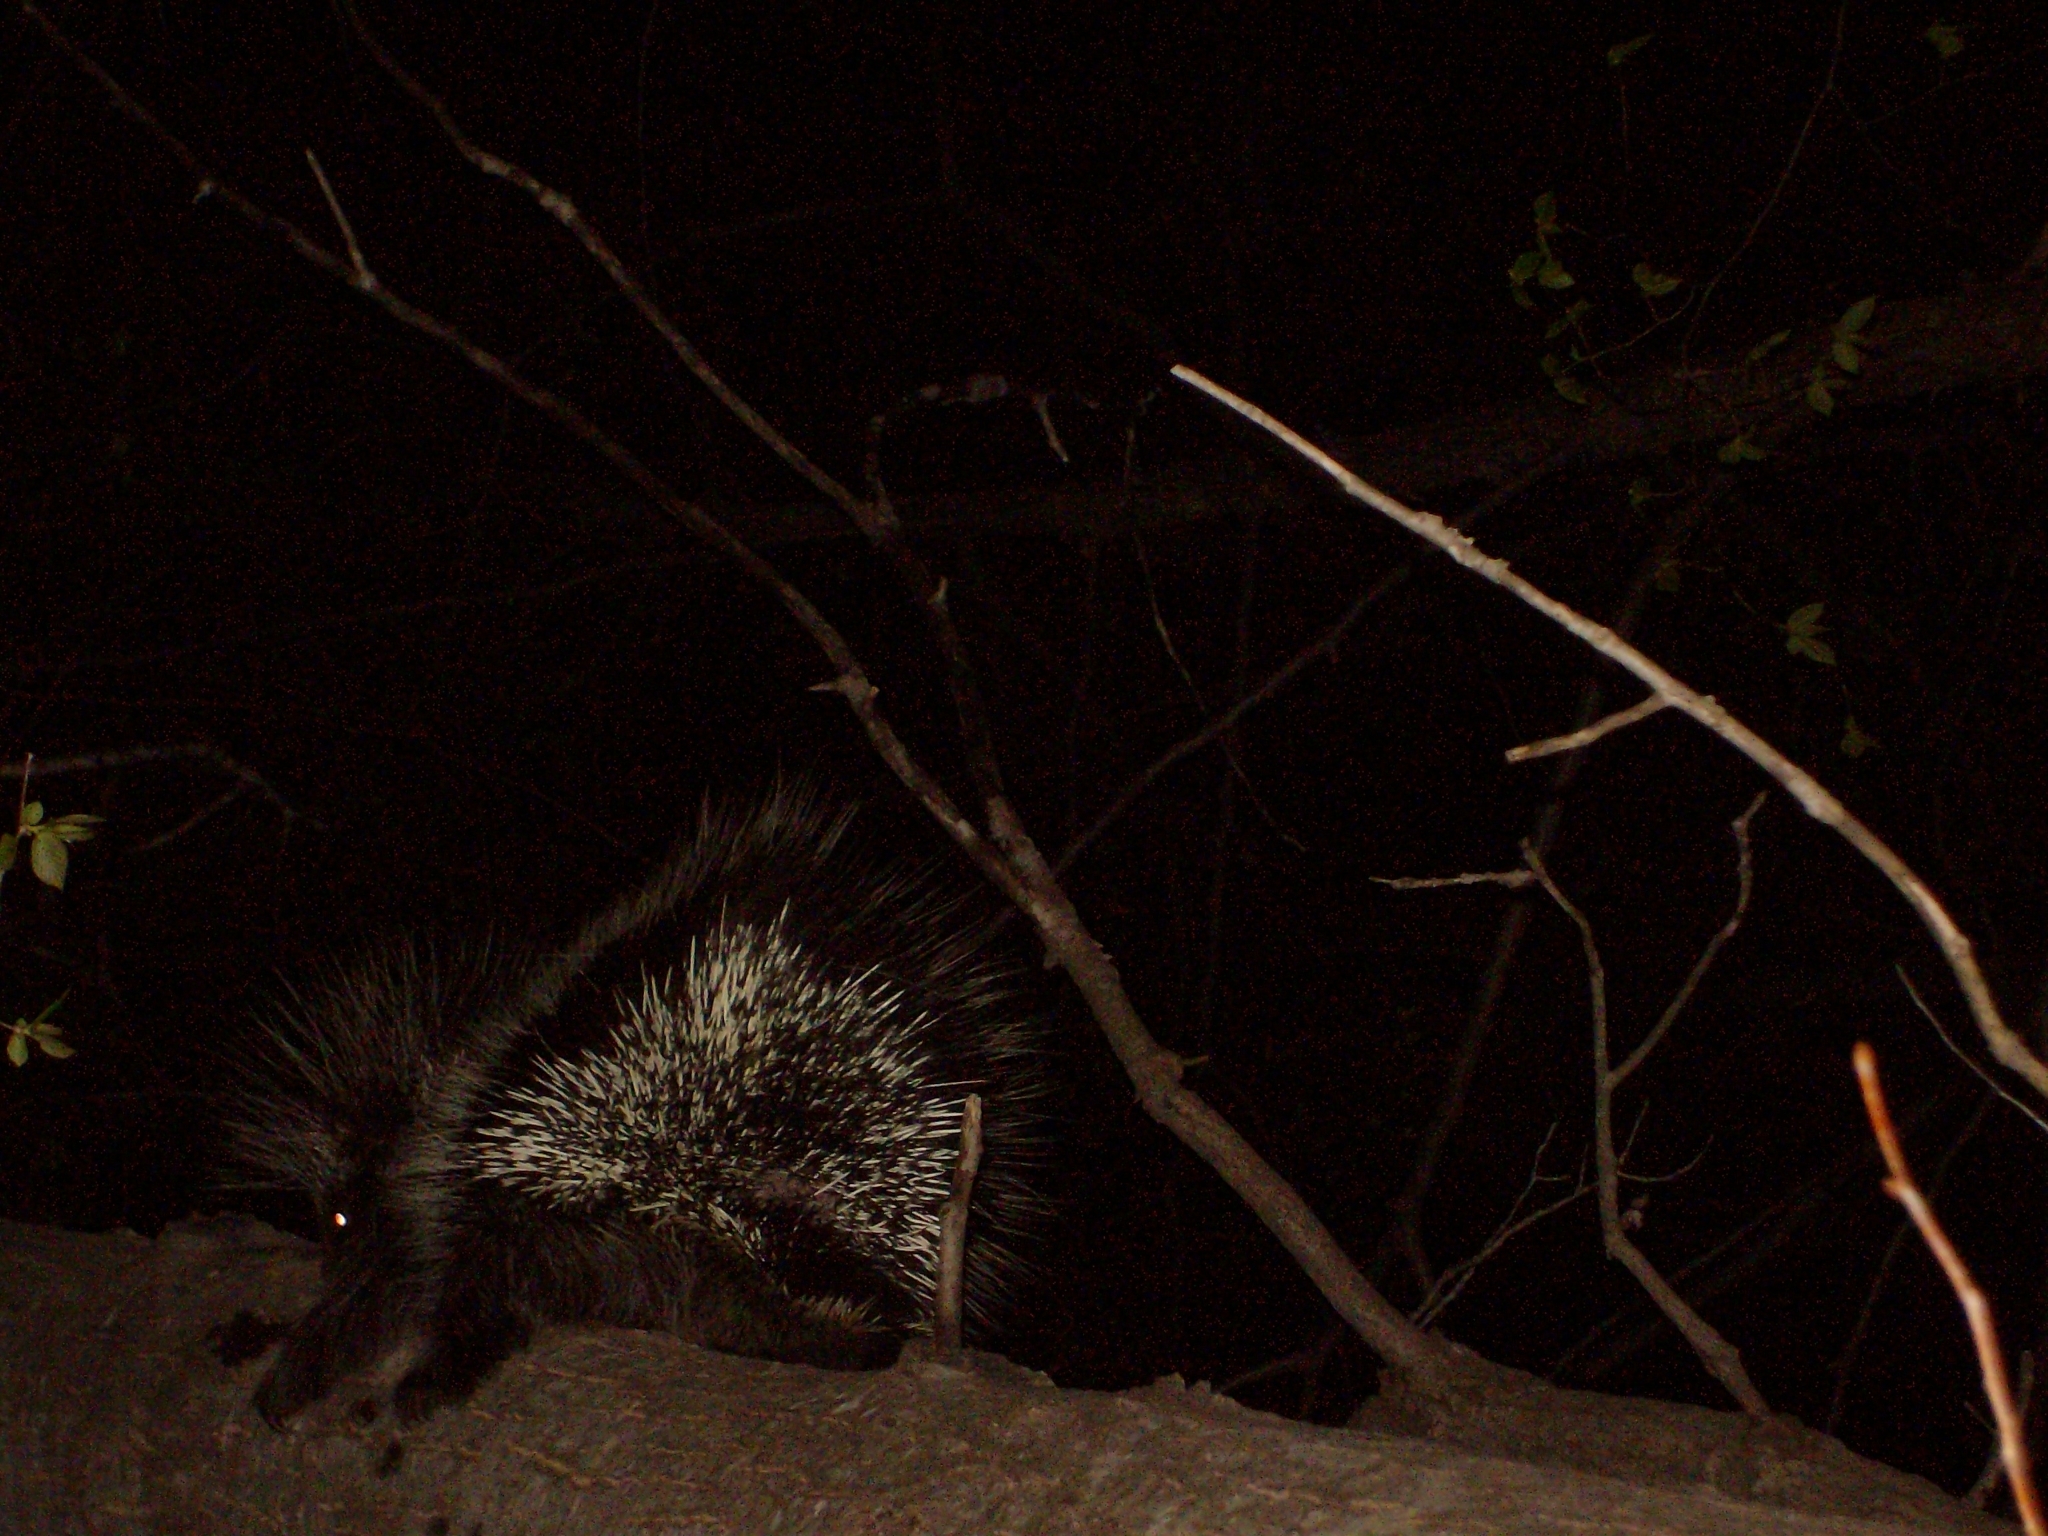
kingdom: Animalia
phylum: Chordata
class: Mammalia
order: Rodentia
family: Erethizontidae
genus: Erethizon
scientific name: Erethizon dorsatus
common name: North american porcupine
